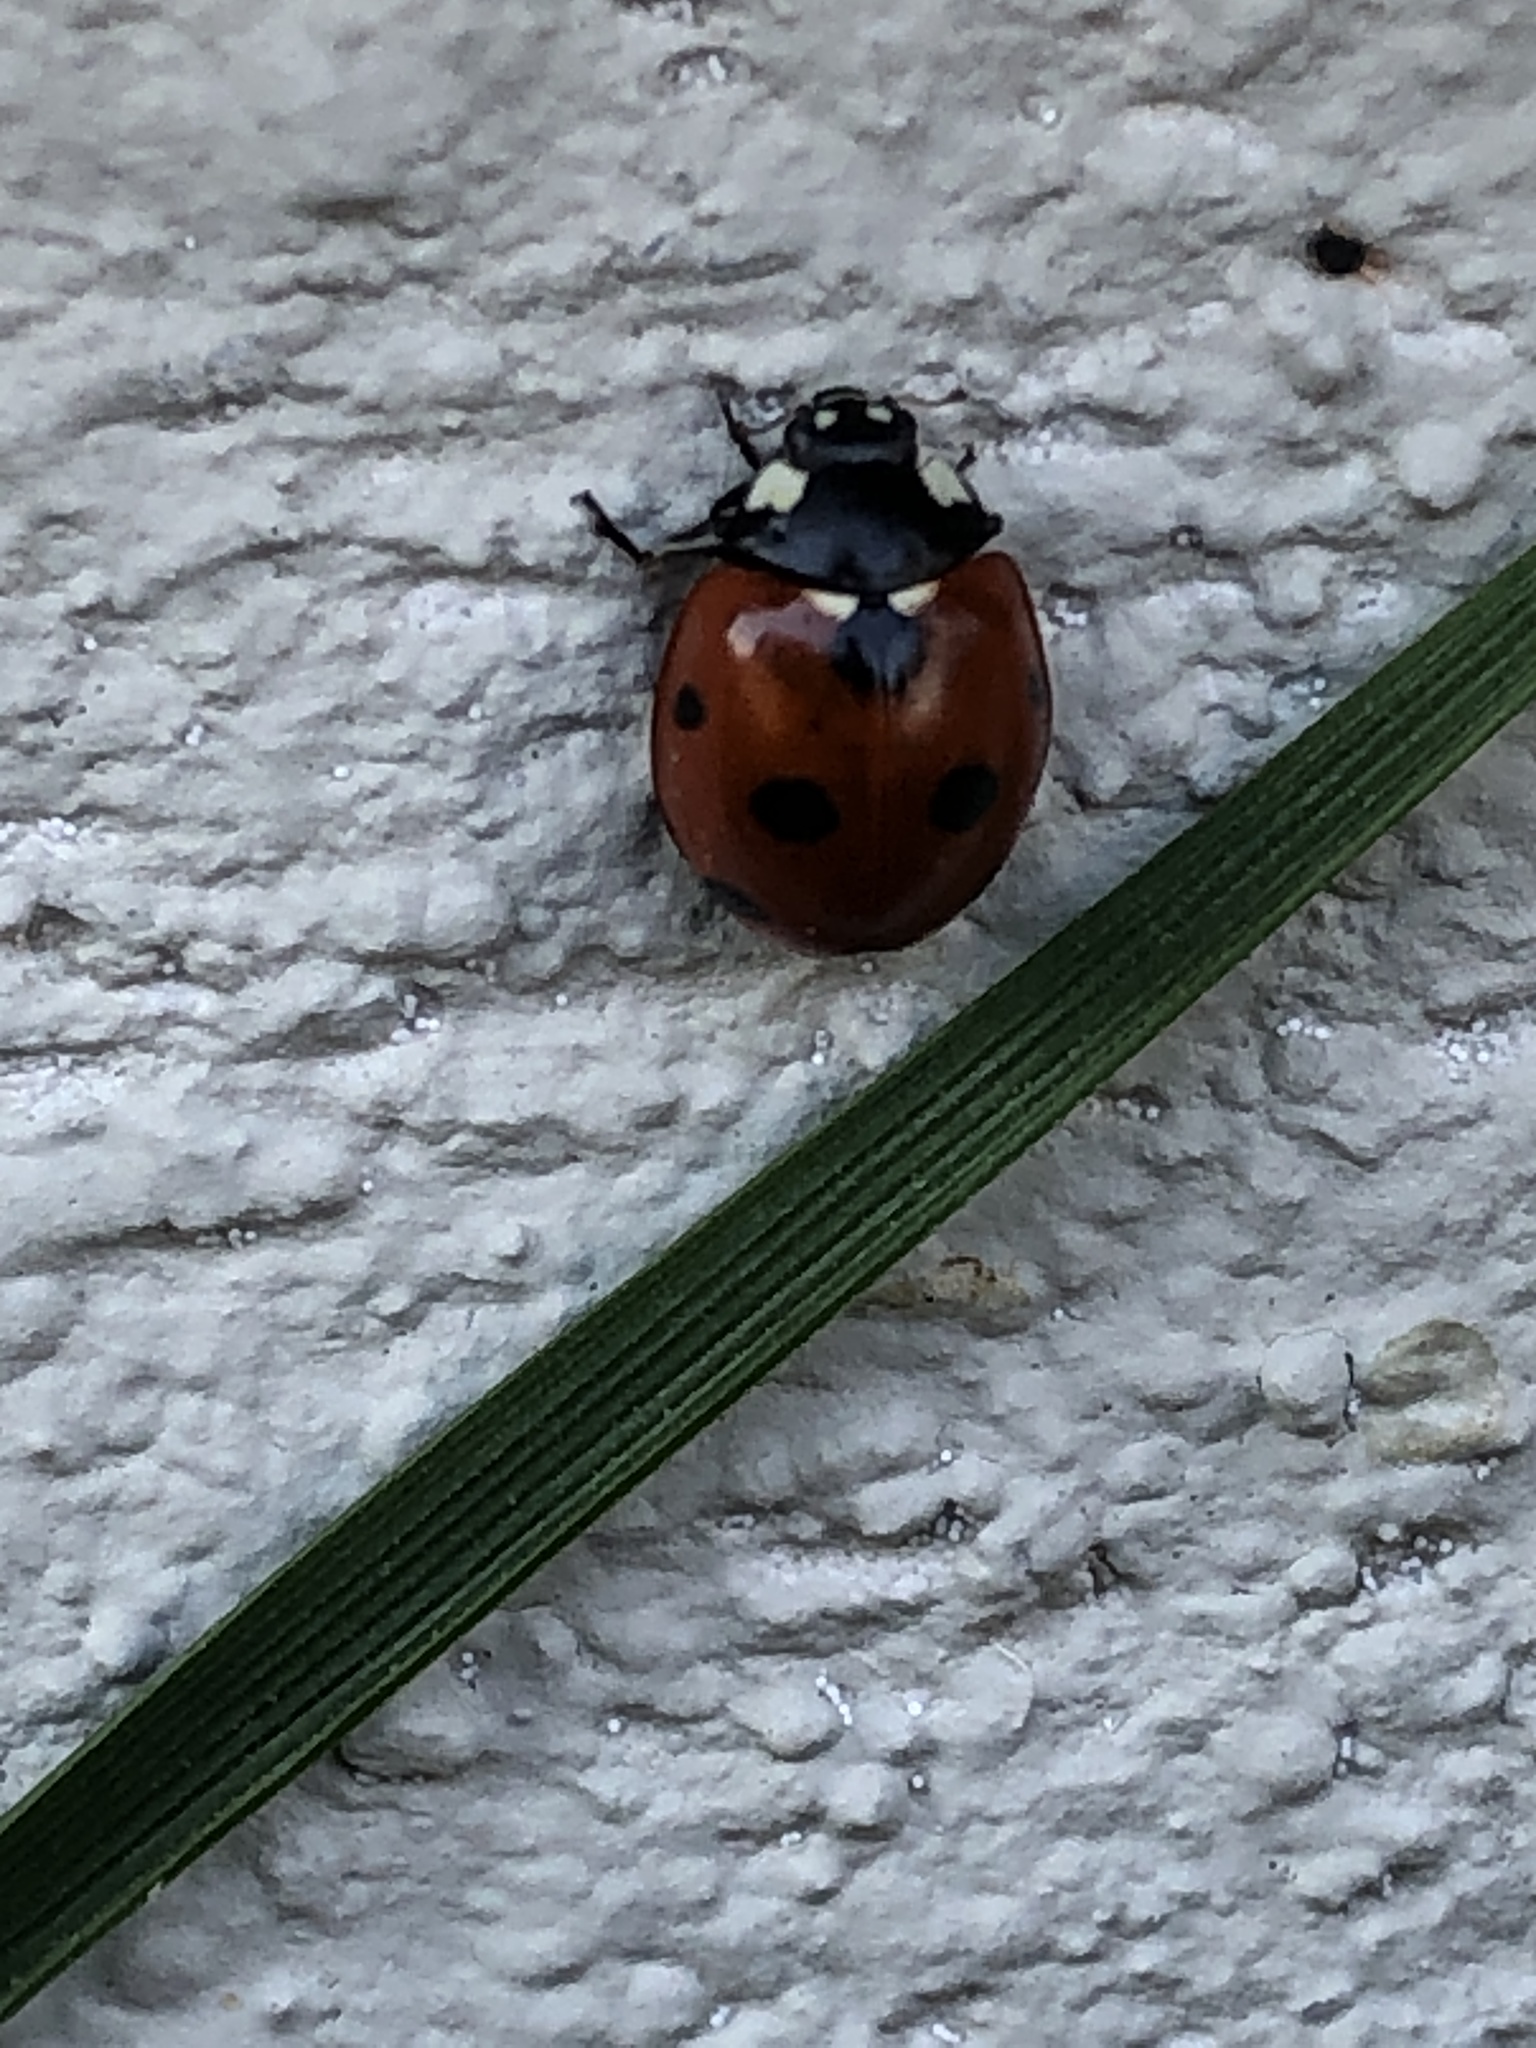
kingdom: Animalia
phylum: Arthropoda
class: Insecta
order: Coleoptera
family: Coccinellidae
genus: Coccinella
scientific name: Coccinella septempunctata
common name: Sevenspotted lady beetle
